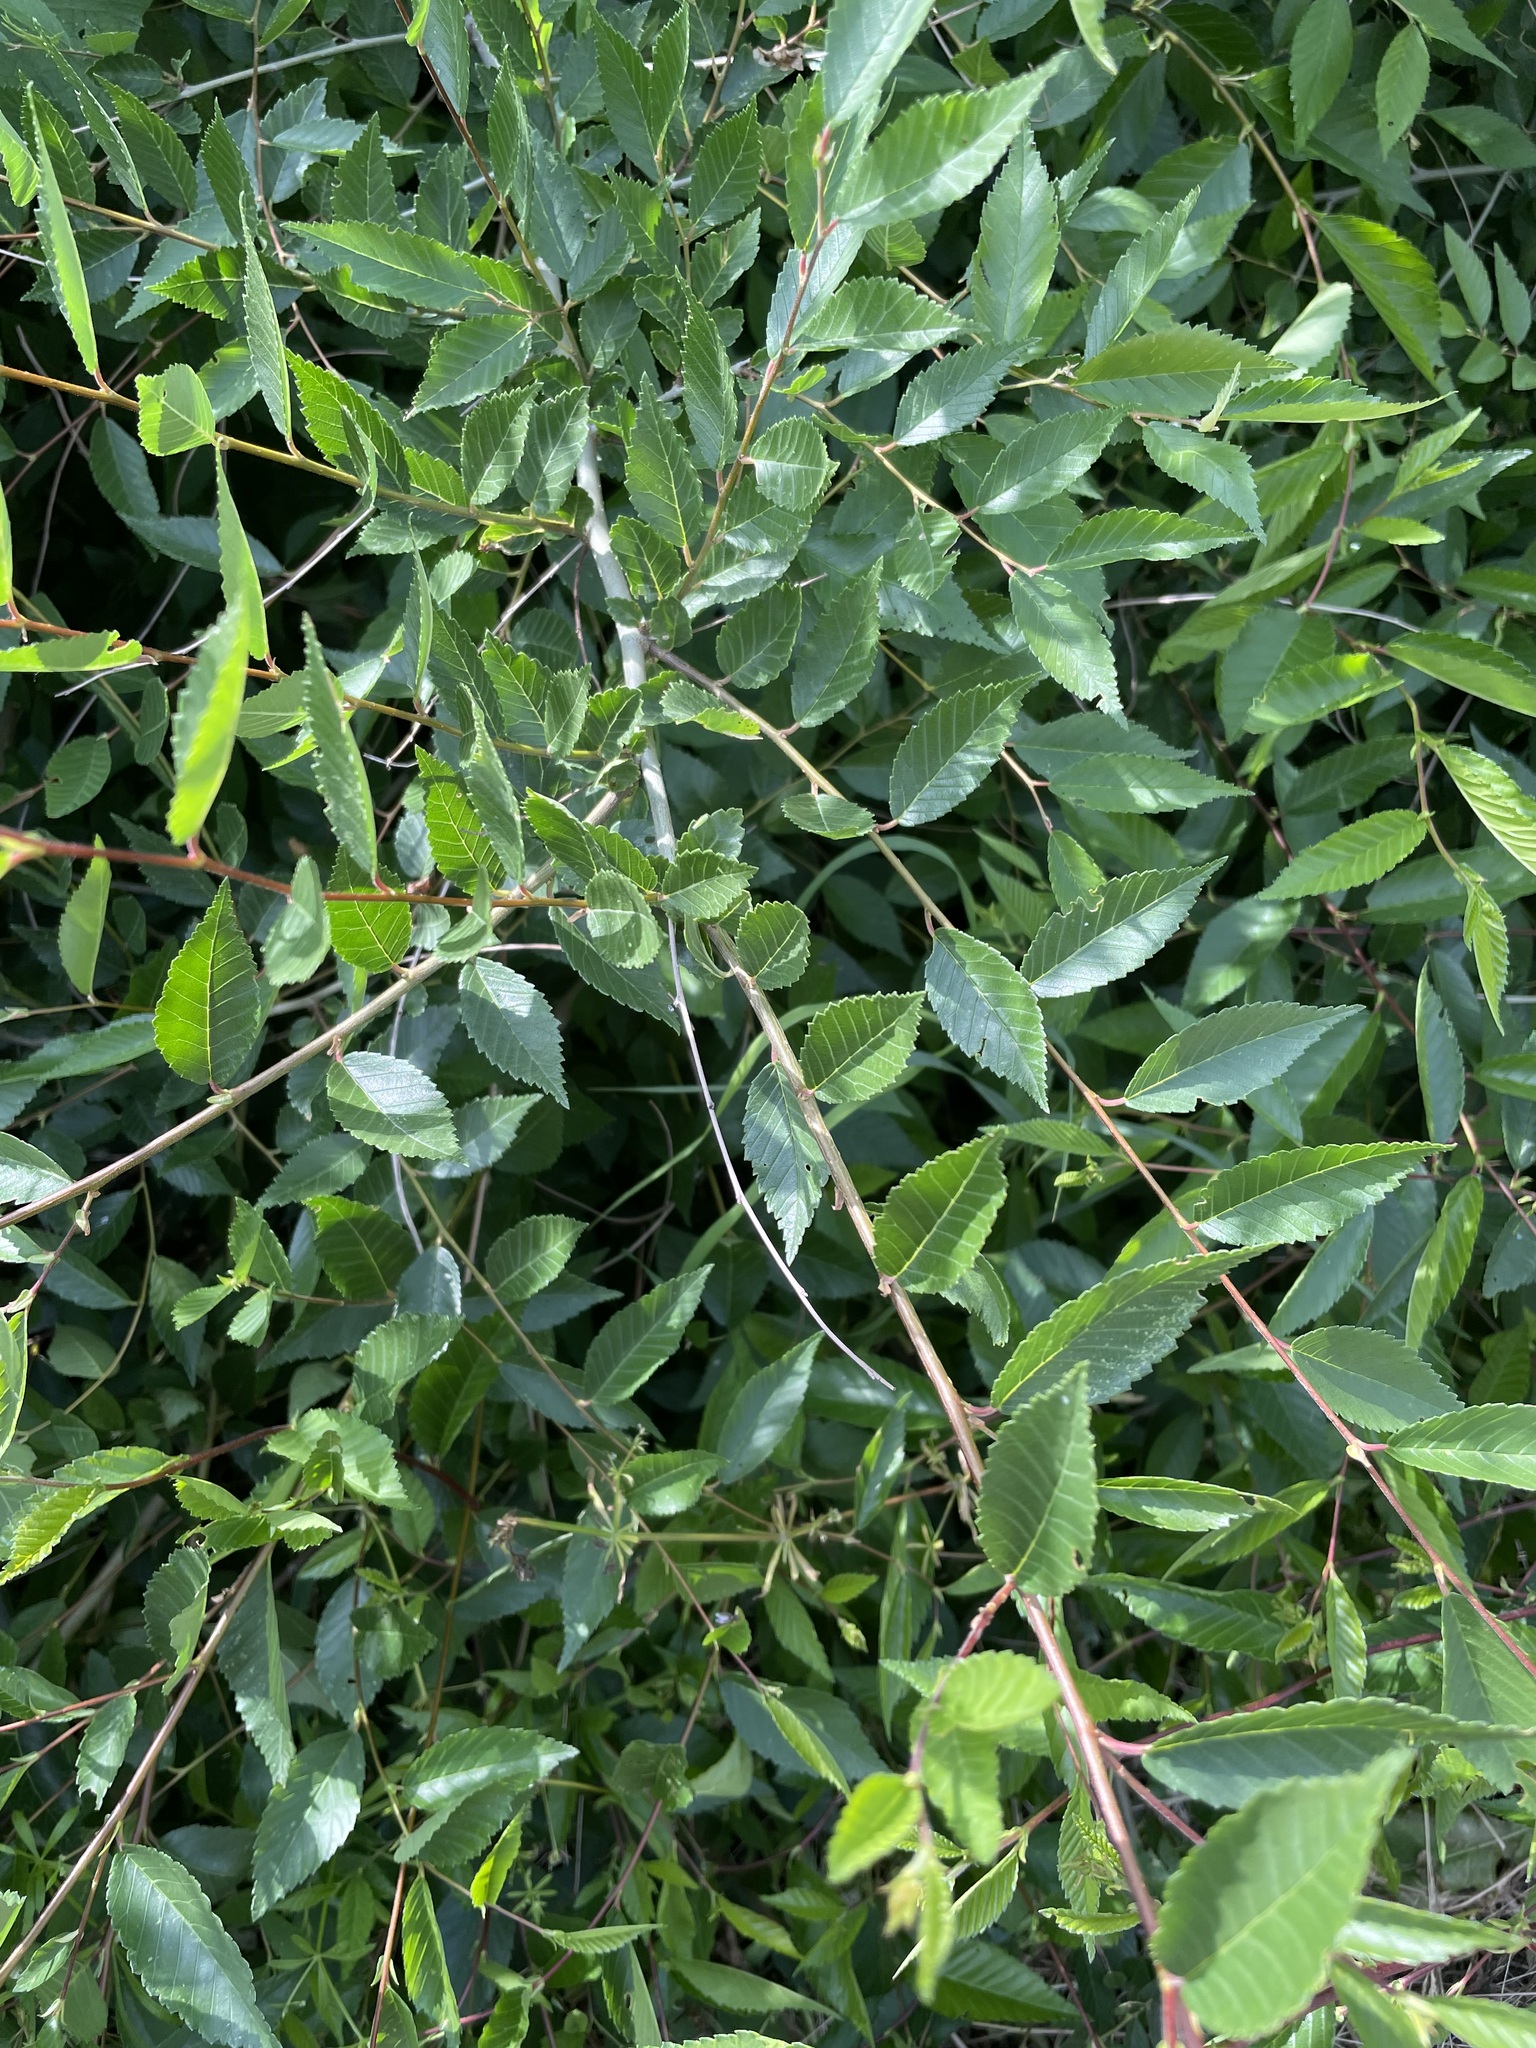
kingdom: Plantae
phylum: Tracheophyta
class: Magnoliopsida
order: Rosales
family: Ulmaceae
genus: Ulmus
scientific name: Ulmus pumila
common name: Siberian elm
